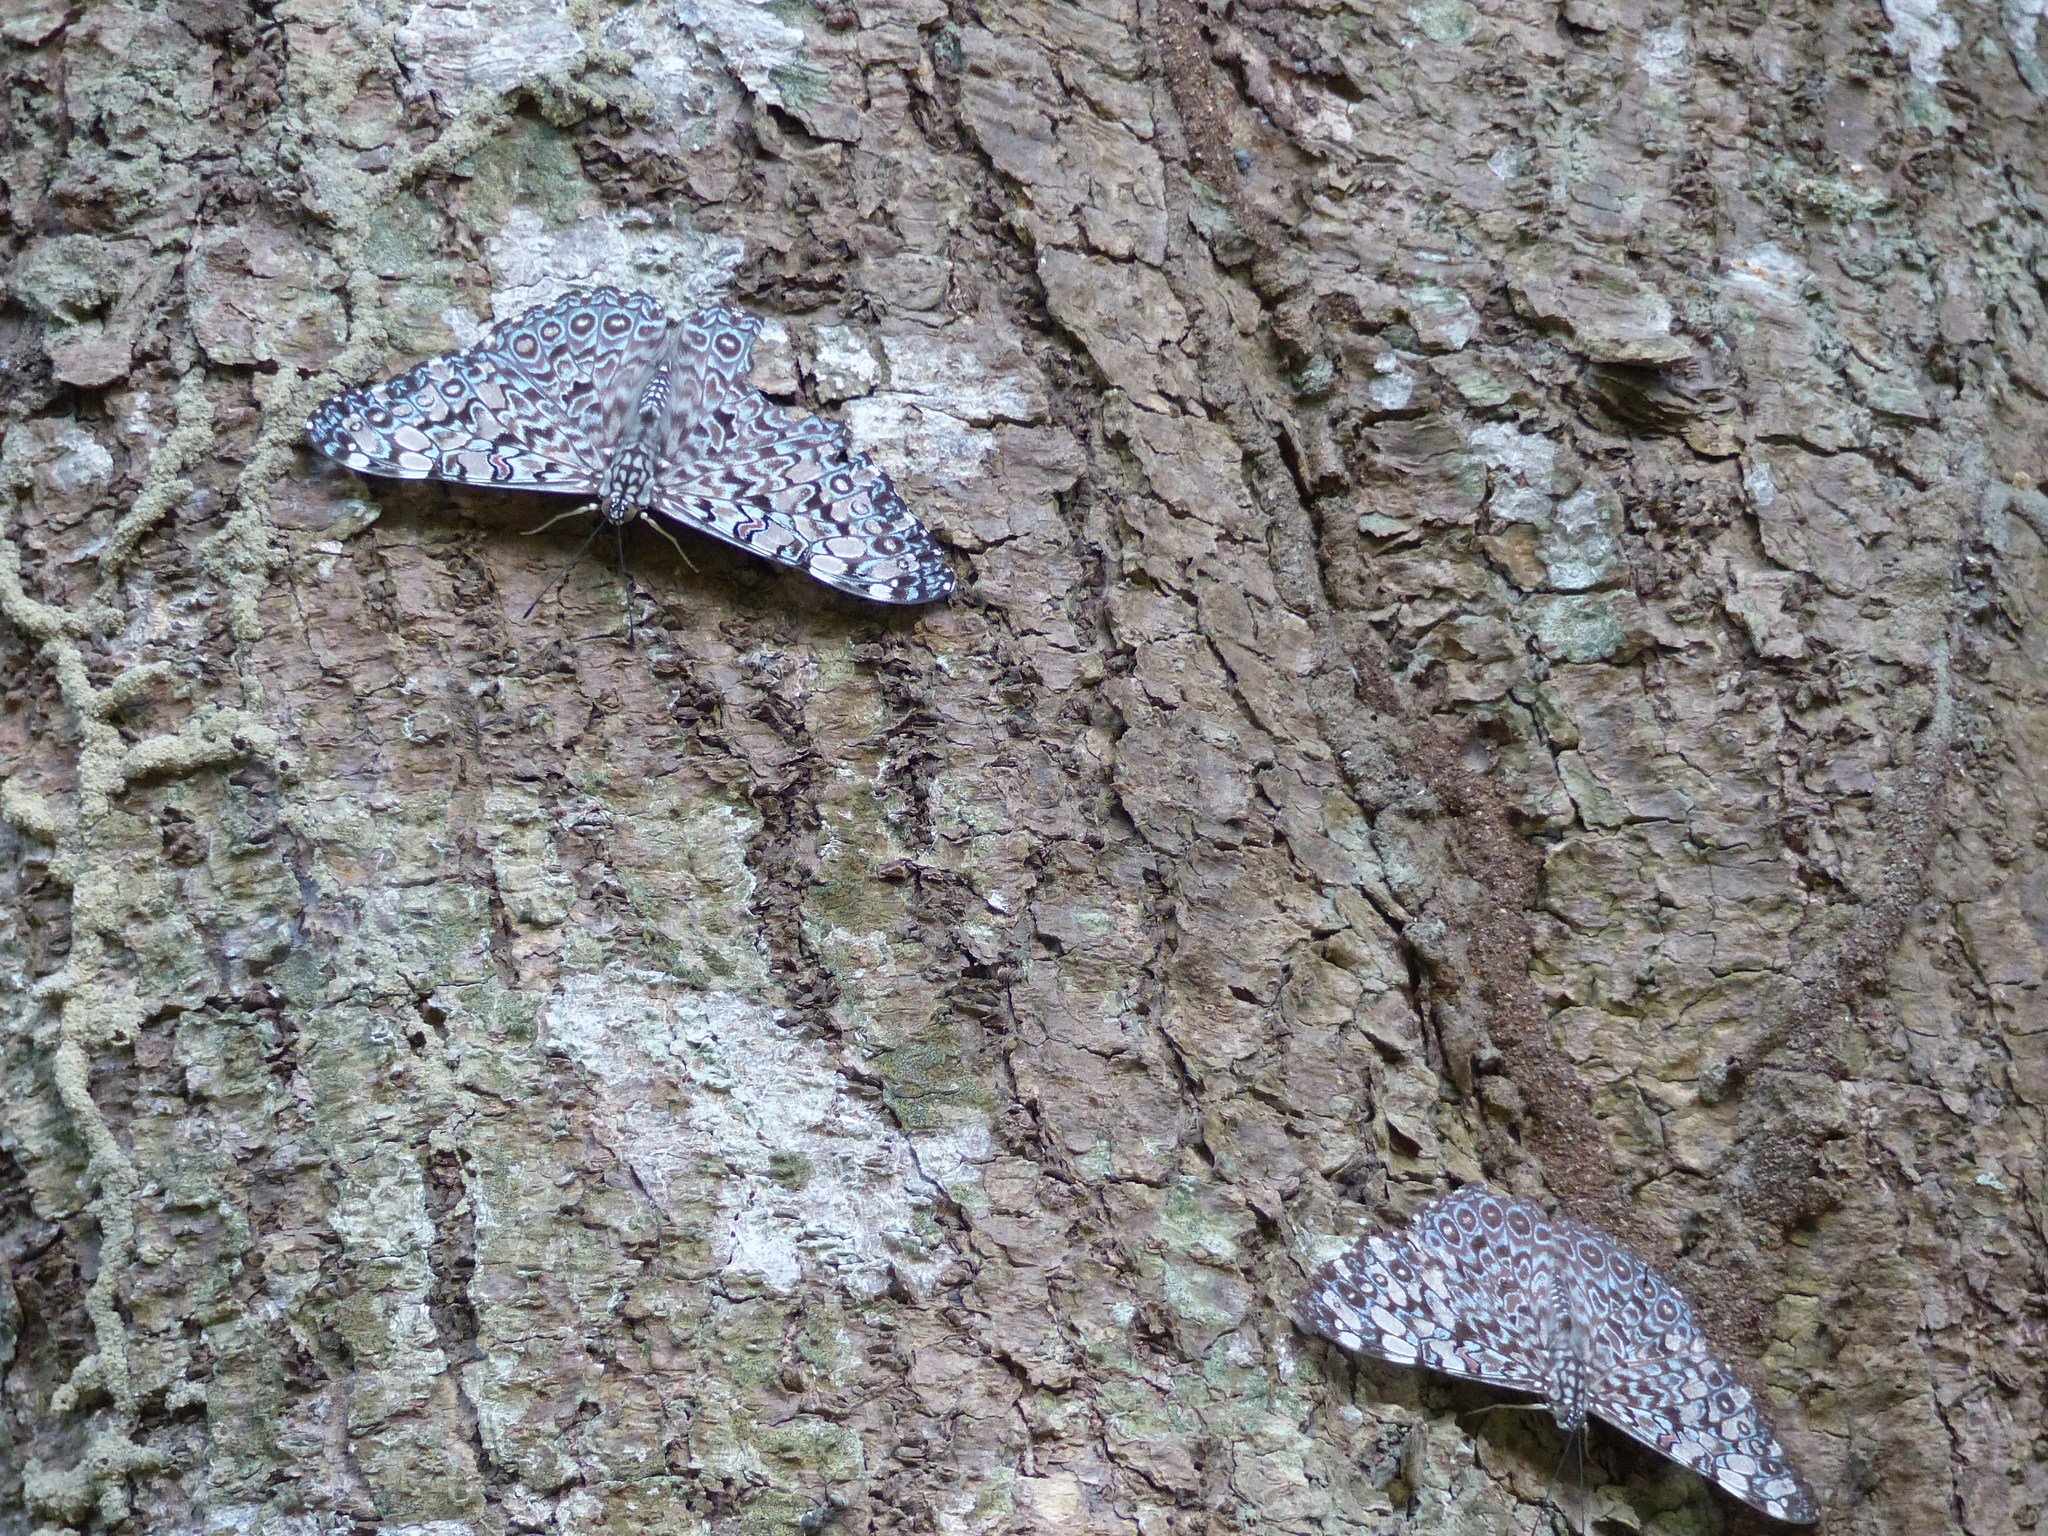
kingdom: Animalia
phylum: Arthropoda
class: Insecta
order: Lepidoptera
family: Nymphalidae
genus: Hamadryas
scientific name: Hamadryas feronia
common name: Variable cracker
